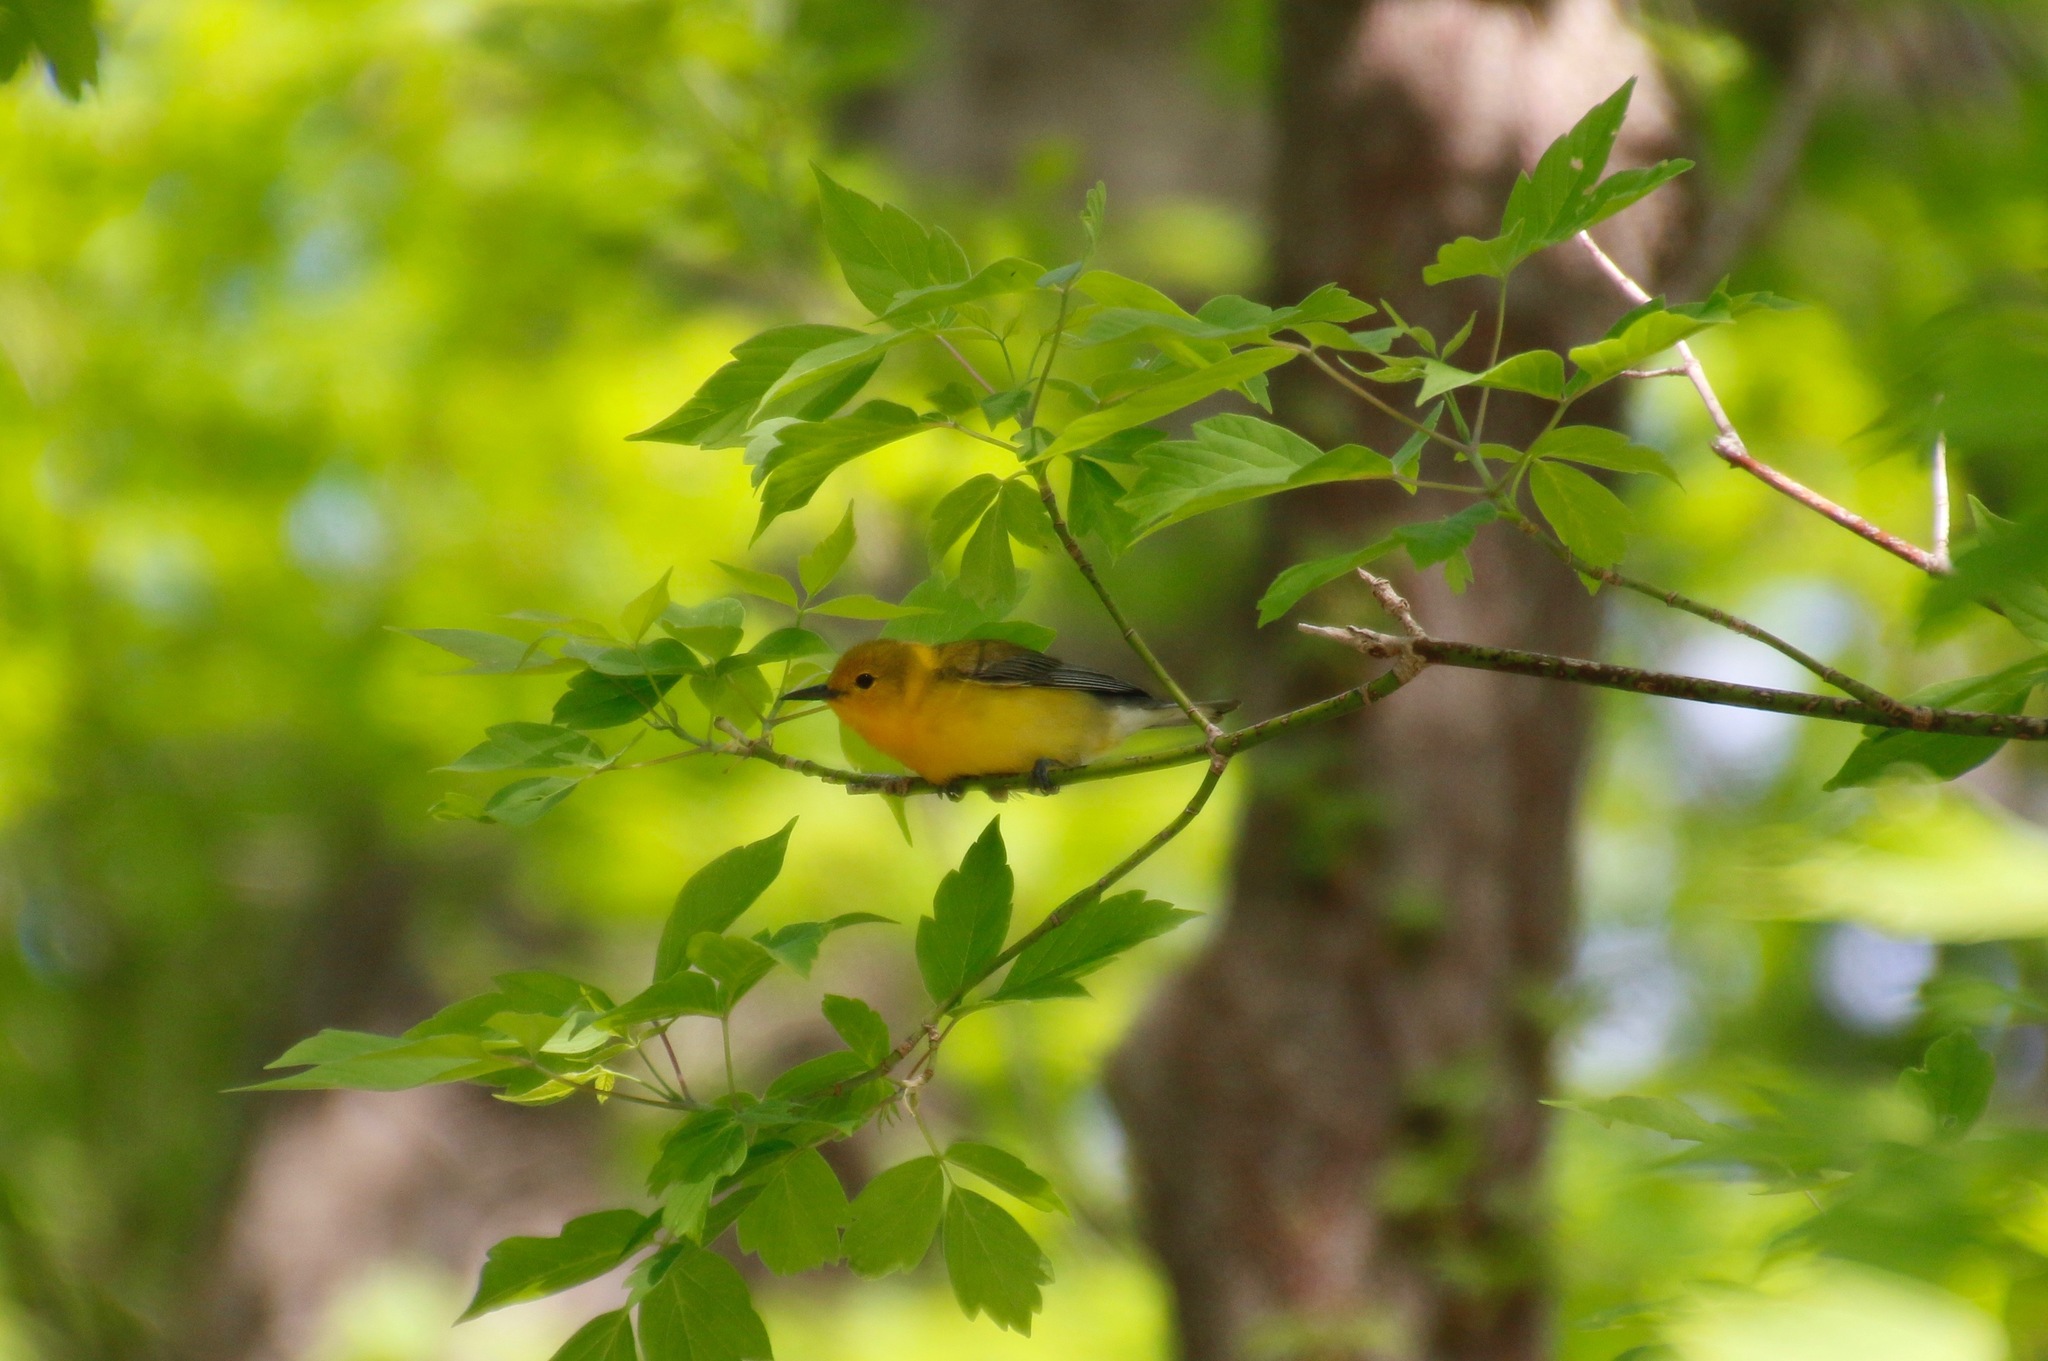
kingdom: Animalia
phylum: Chordata
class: Aves
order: Passeriformes
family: Parulidae
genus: Protonotaria
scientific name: Protonotaria citrea
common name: Prothonotary warbler
